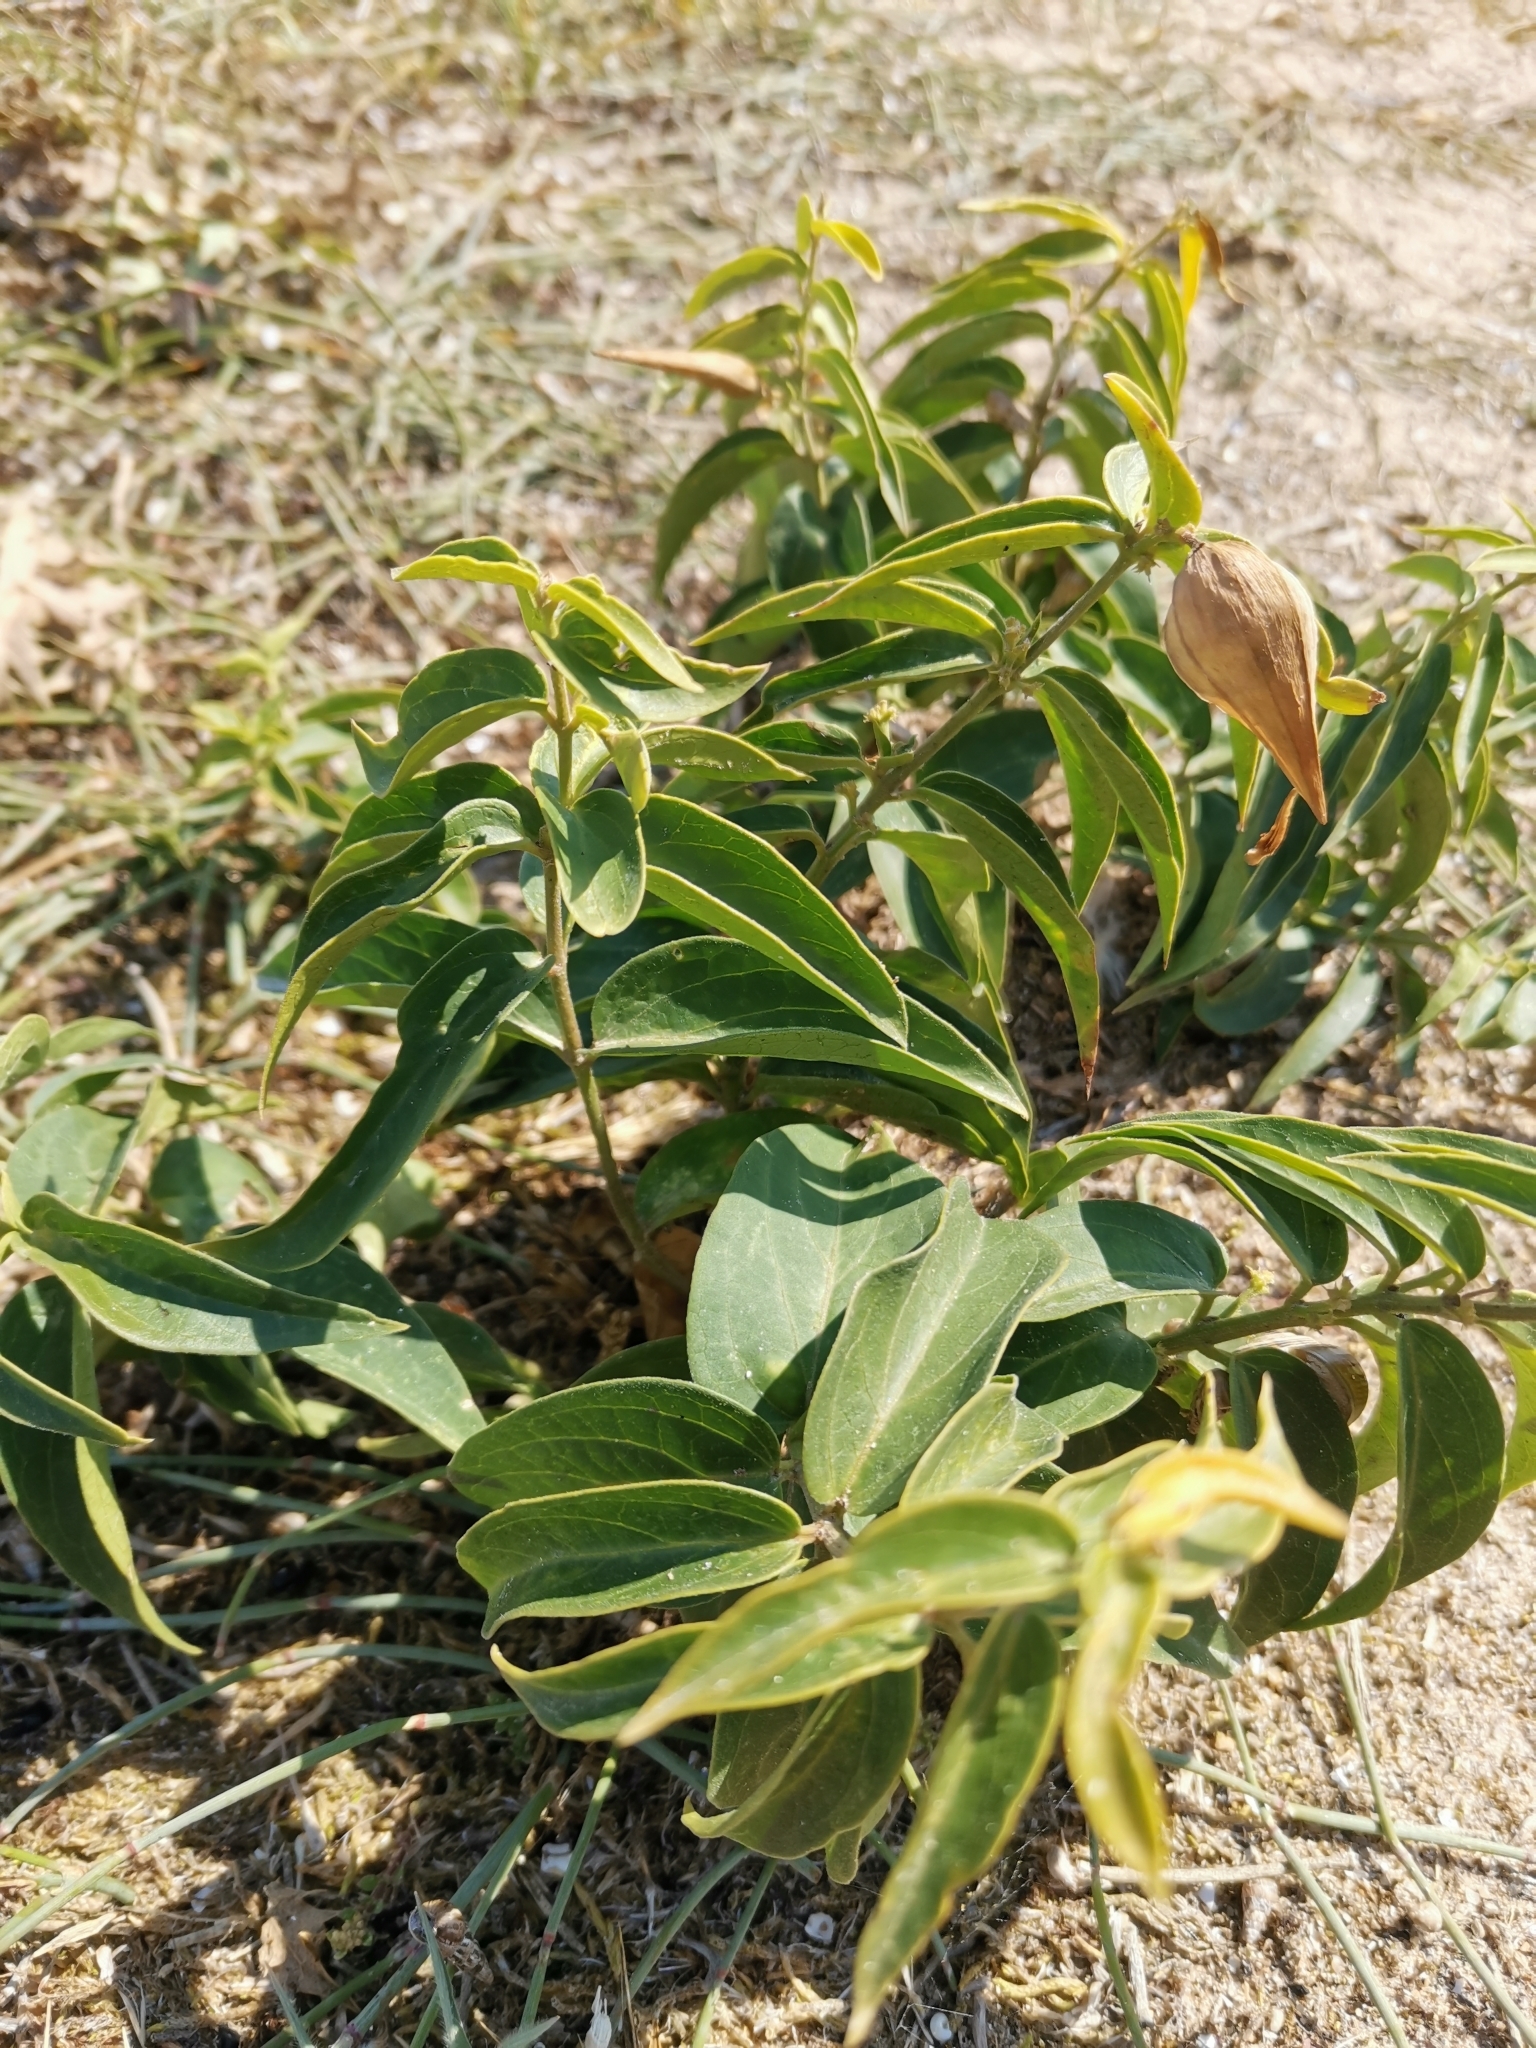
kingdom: Plantae
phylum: Tracheophyta
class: Magnoliopsida
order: Gentianales
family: Apocynaceae
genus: Vincetoxicum
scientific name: Vincetoxicum hirundinaria
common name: White swallowwort
